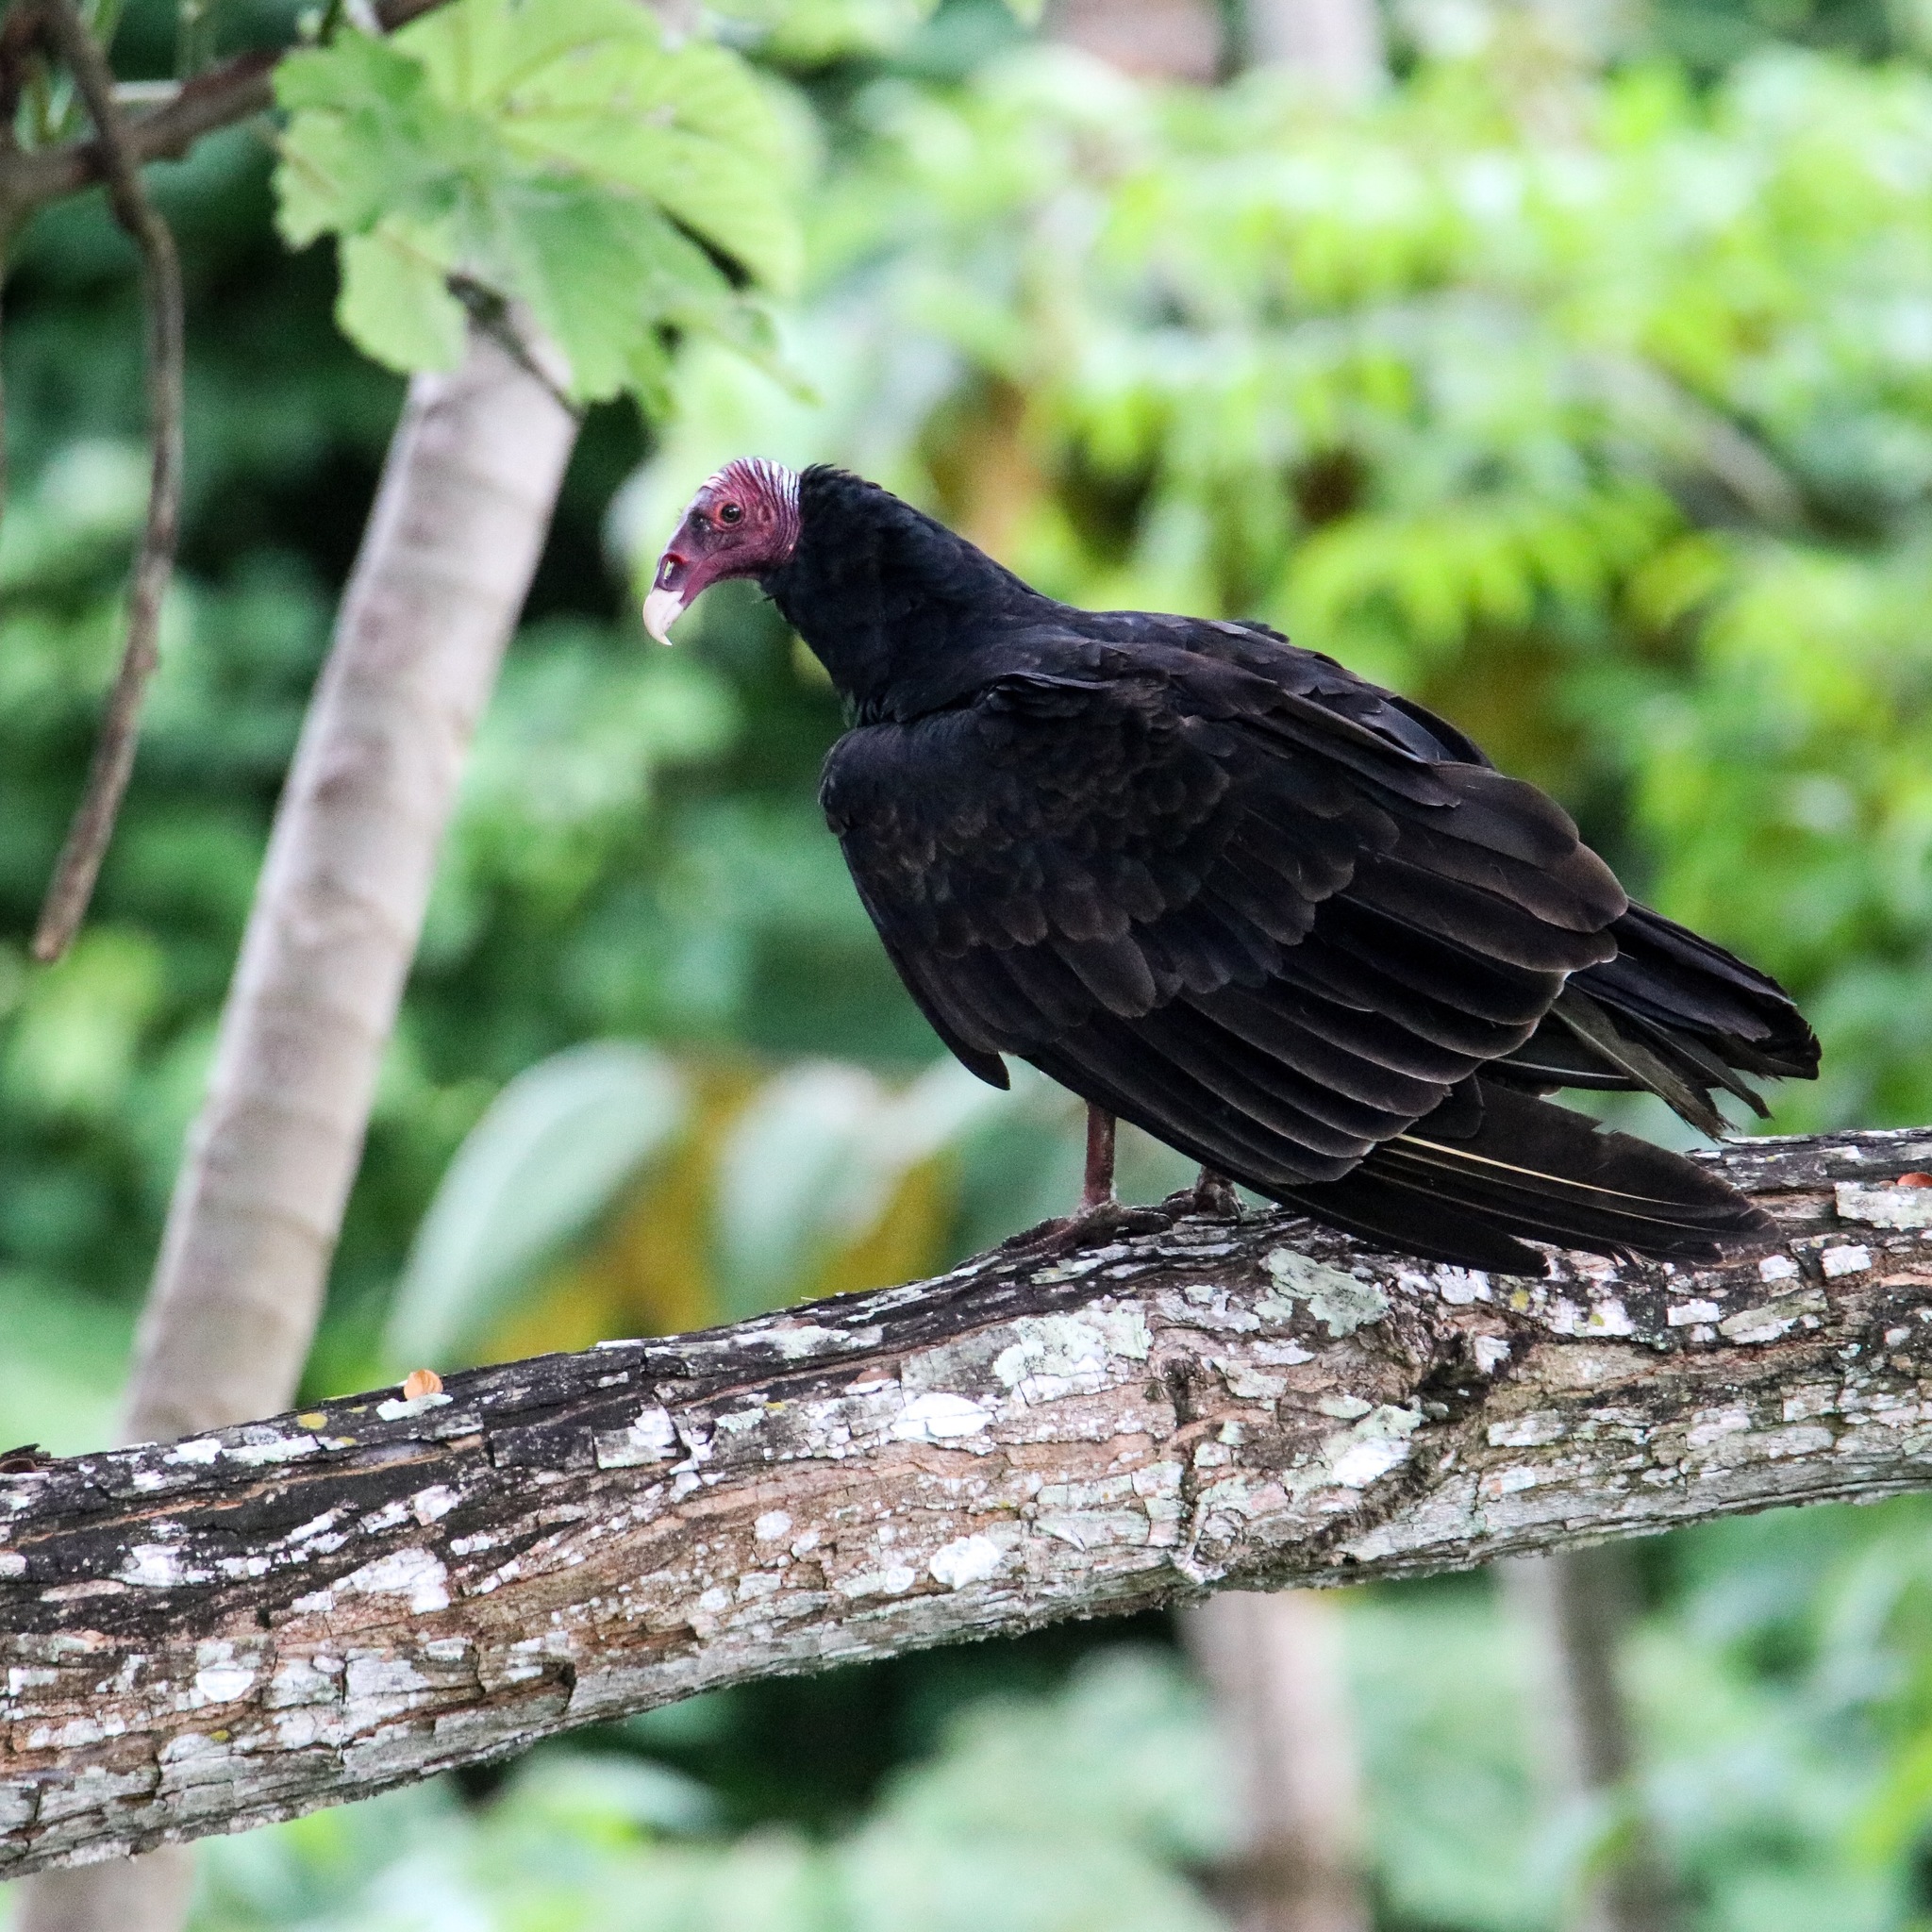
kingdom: Animalia
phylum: Chordata
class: Aves
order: Accipitriformes
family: Cathartidae
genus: Cathartes
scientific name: Cathartes aura
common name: Turkey vulture
